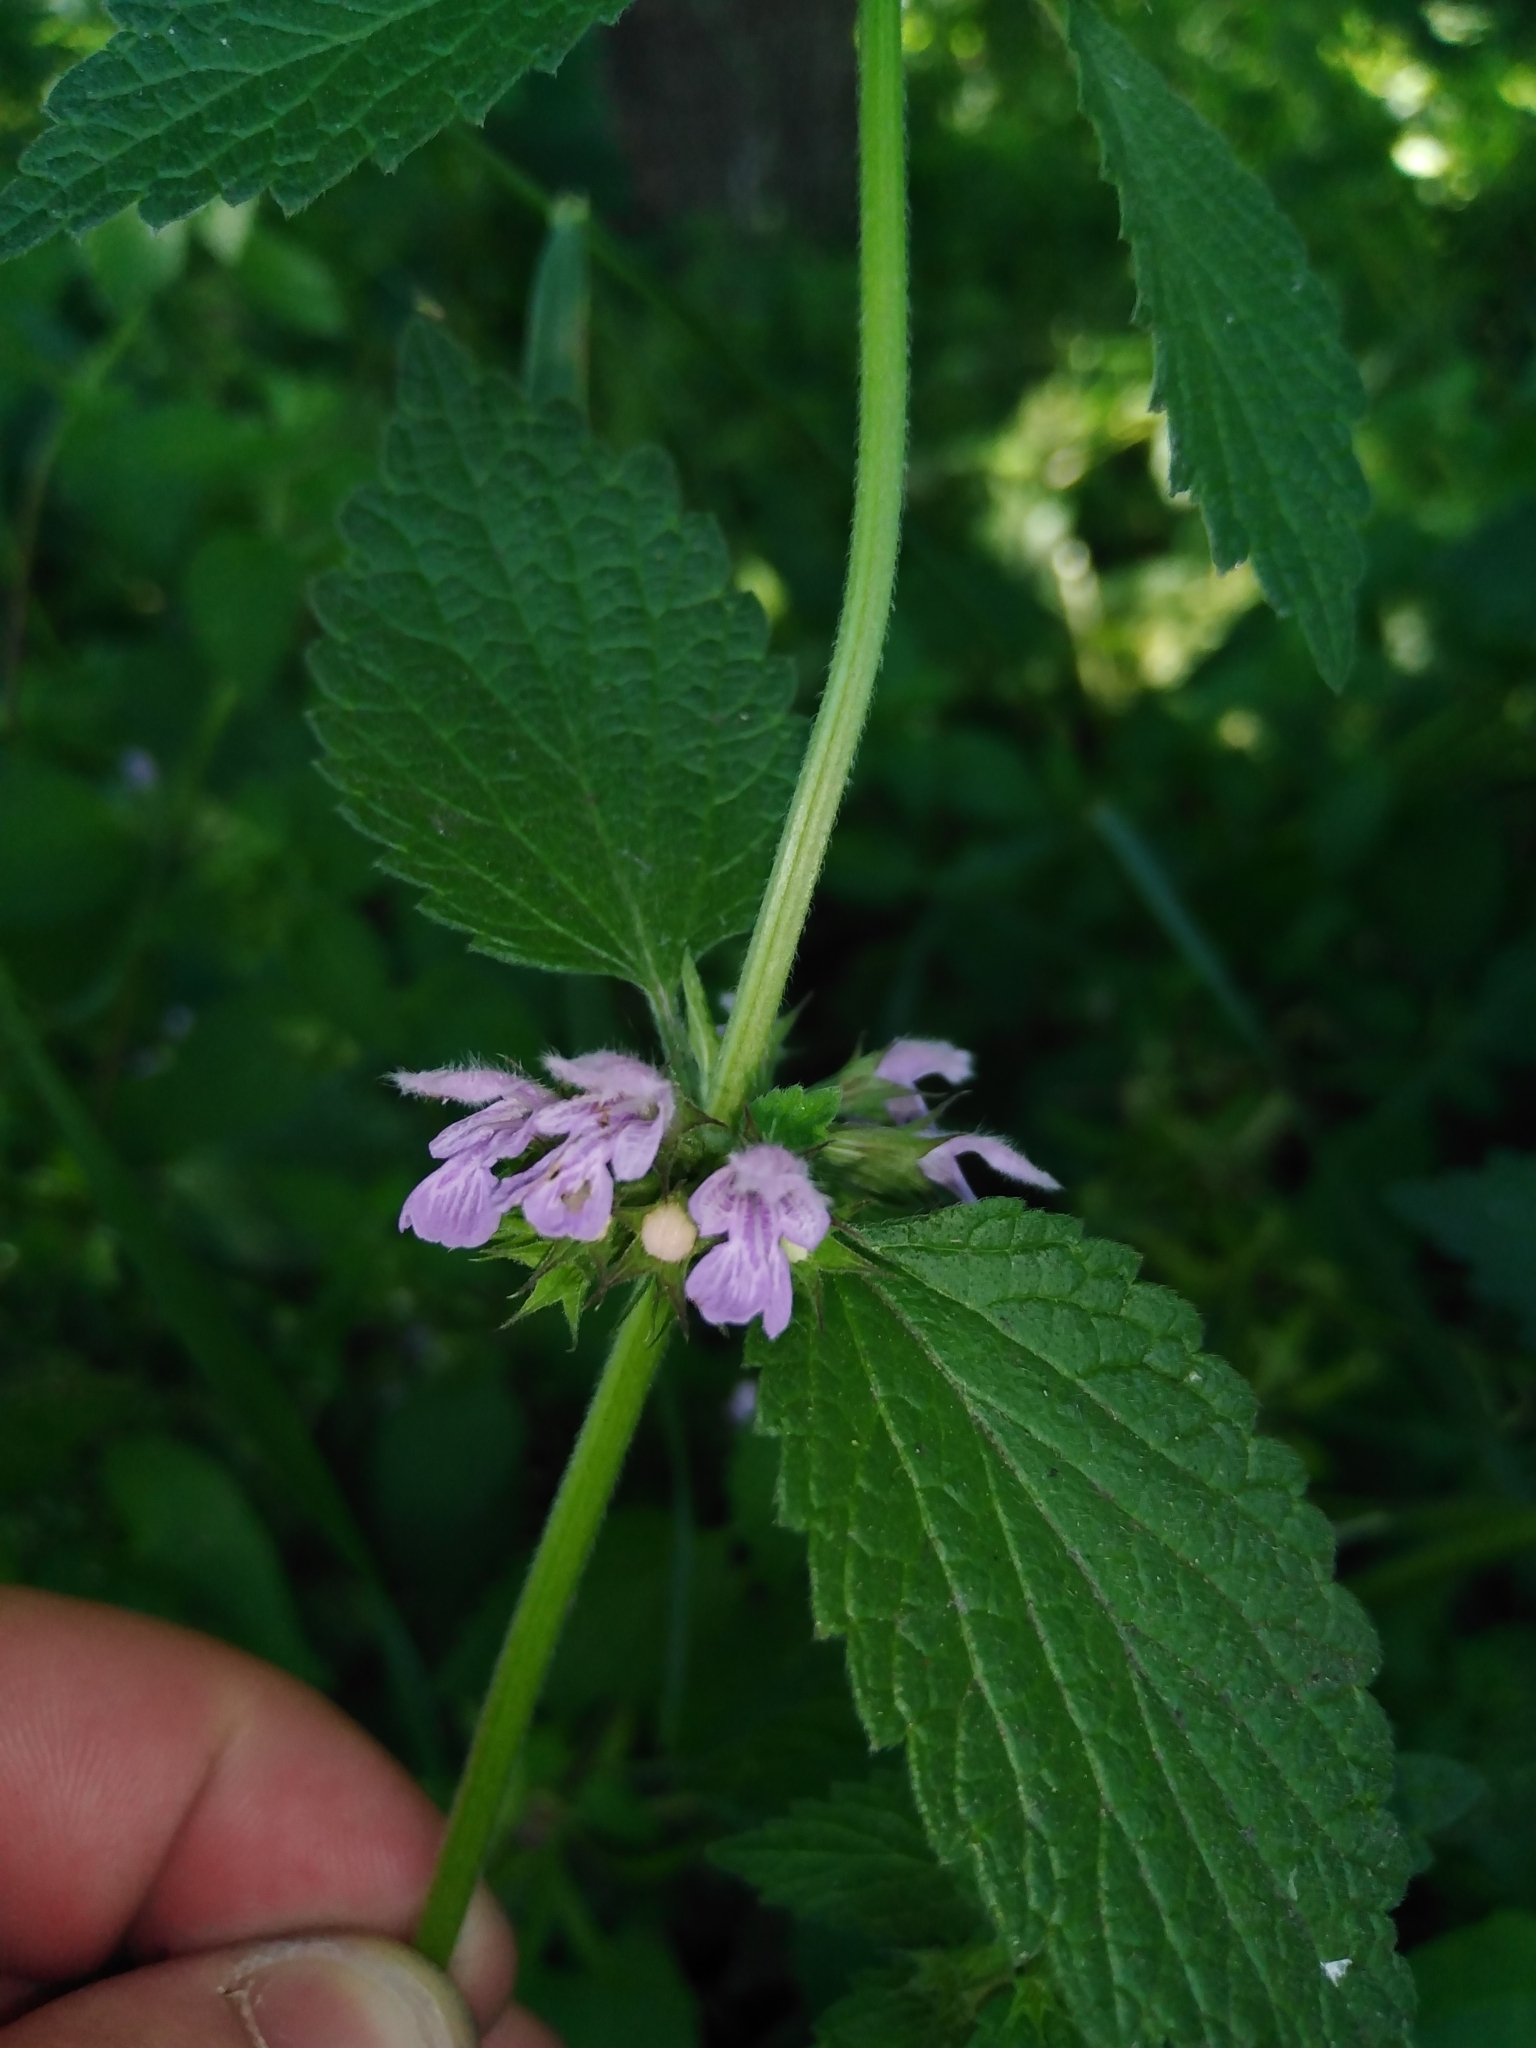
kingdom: Plantae
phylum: Tracheophyta
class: Magnoliopsida
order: Lamiales
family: Lamiaceae
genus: Ballota
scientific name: Ballota nigra
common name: Black horehound
